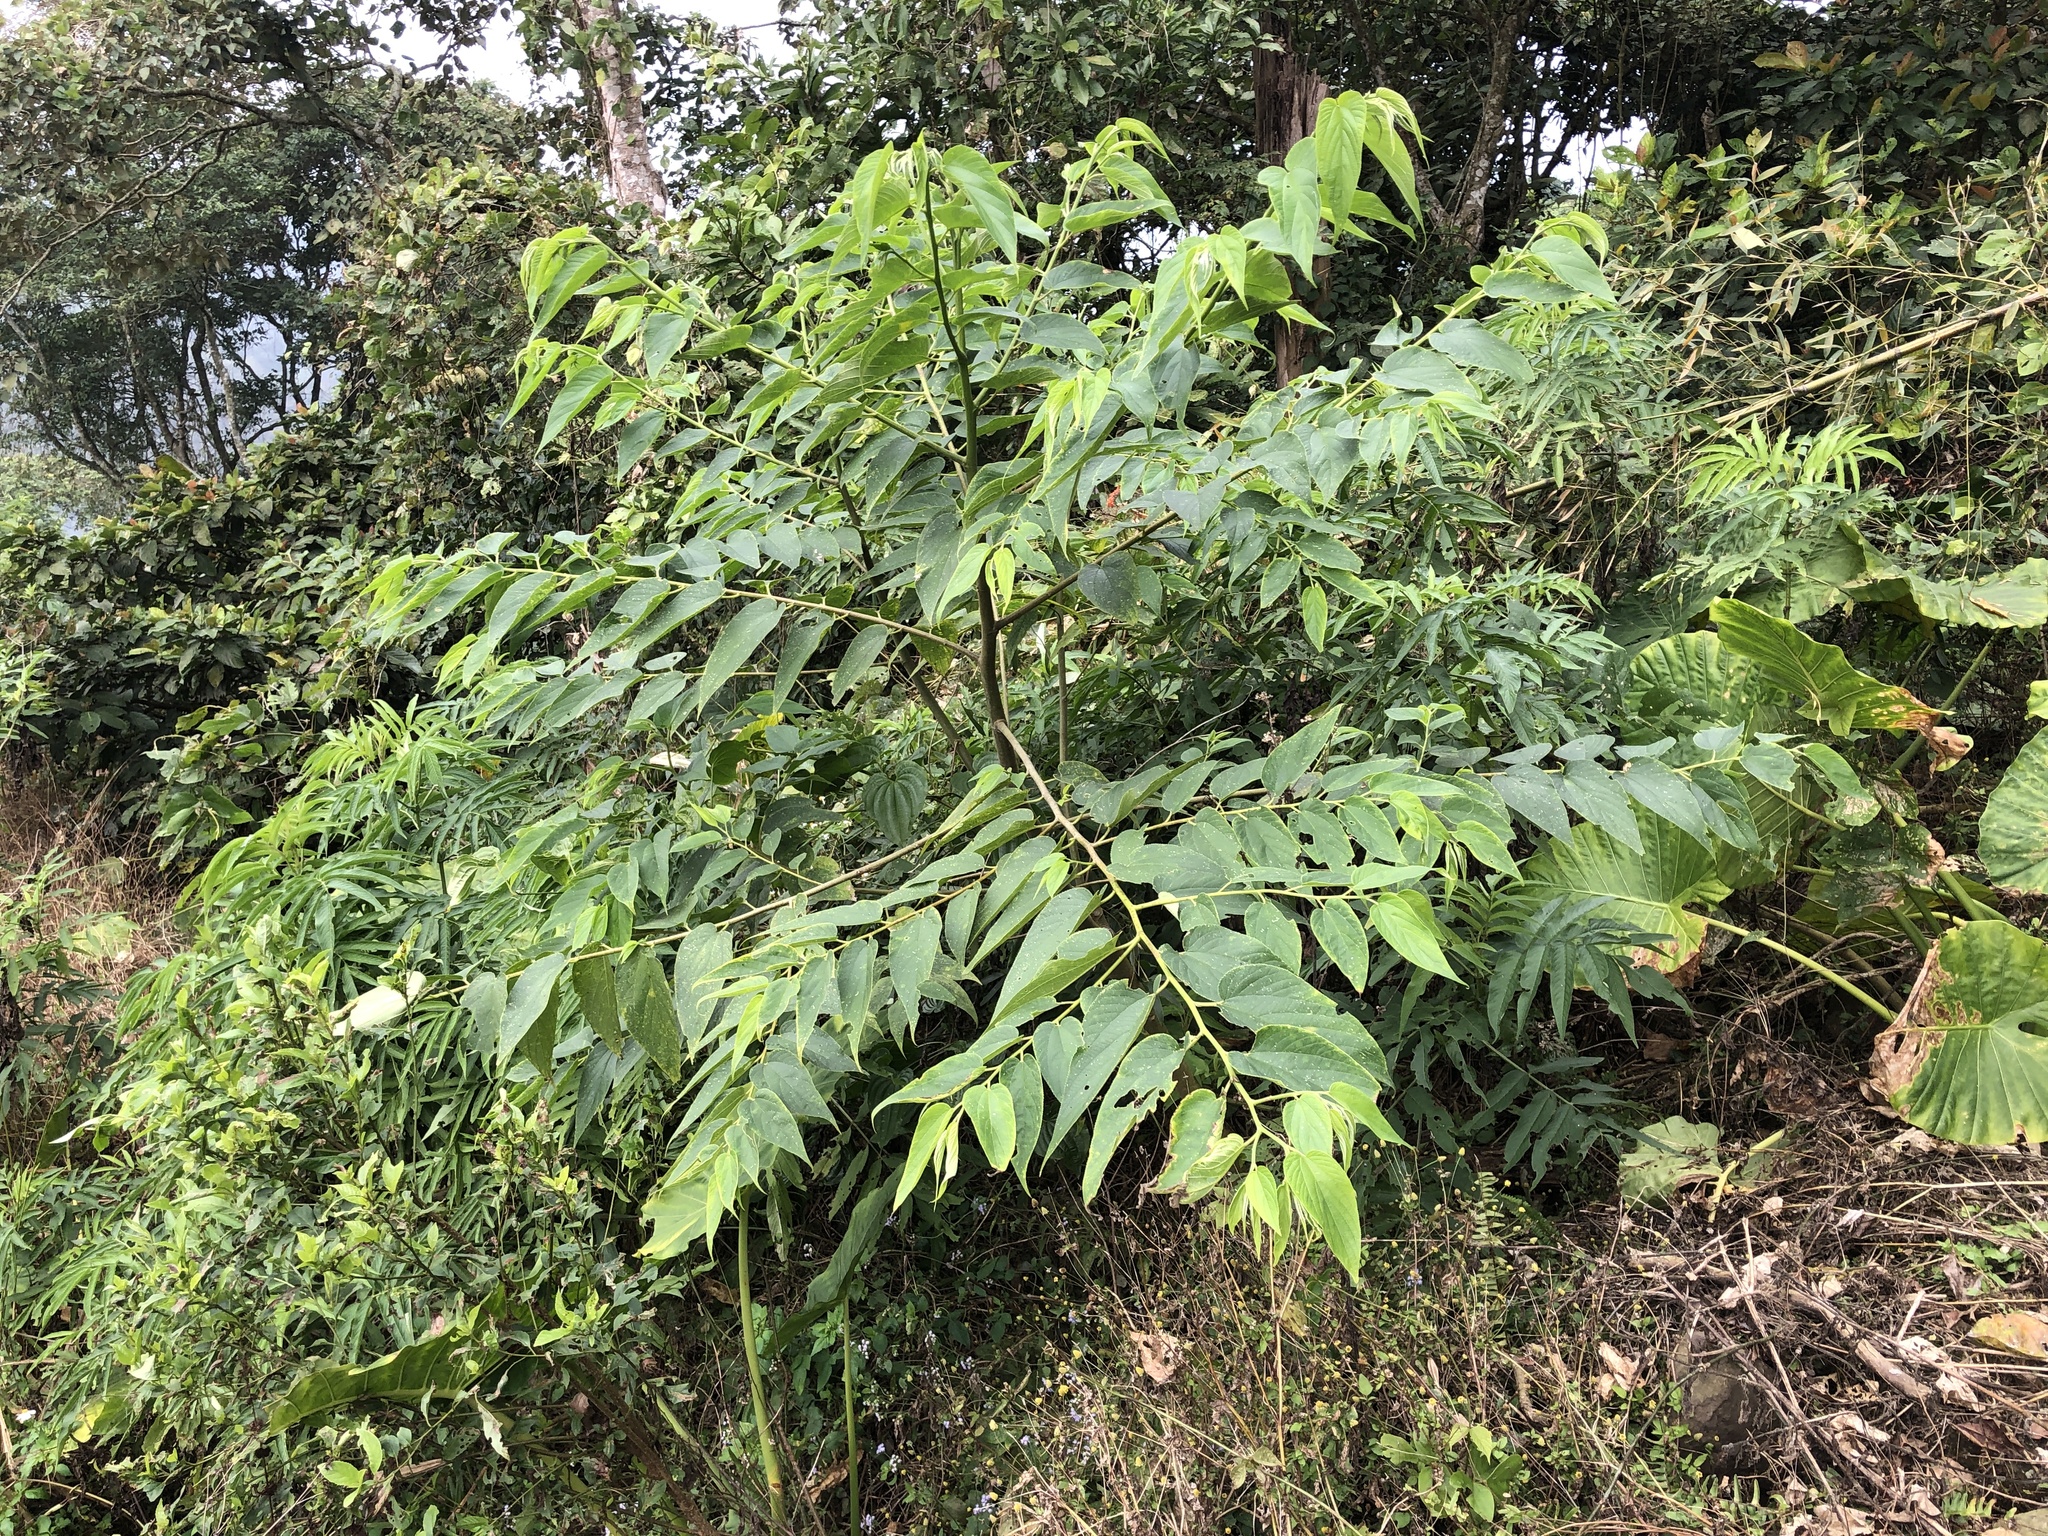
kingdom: Plantae
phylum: Tracheophyta
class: Magnoliopsida
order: Rosales
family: Cannabaceae
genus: Trema
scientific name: Trema orientale
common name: Indian charcoal tree
